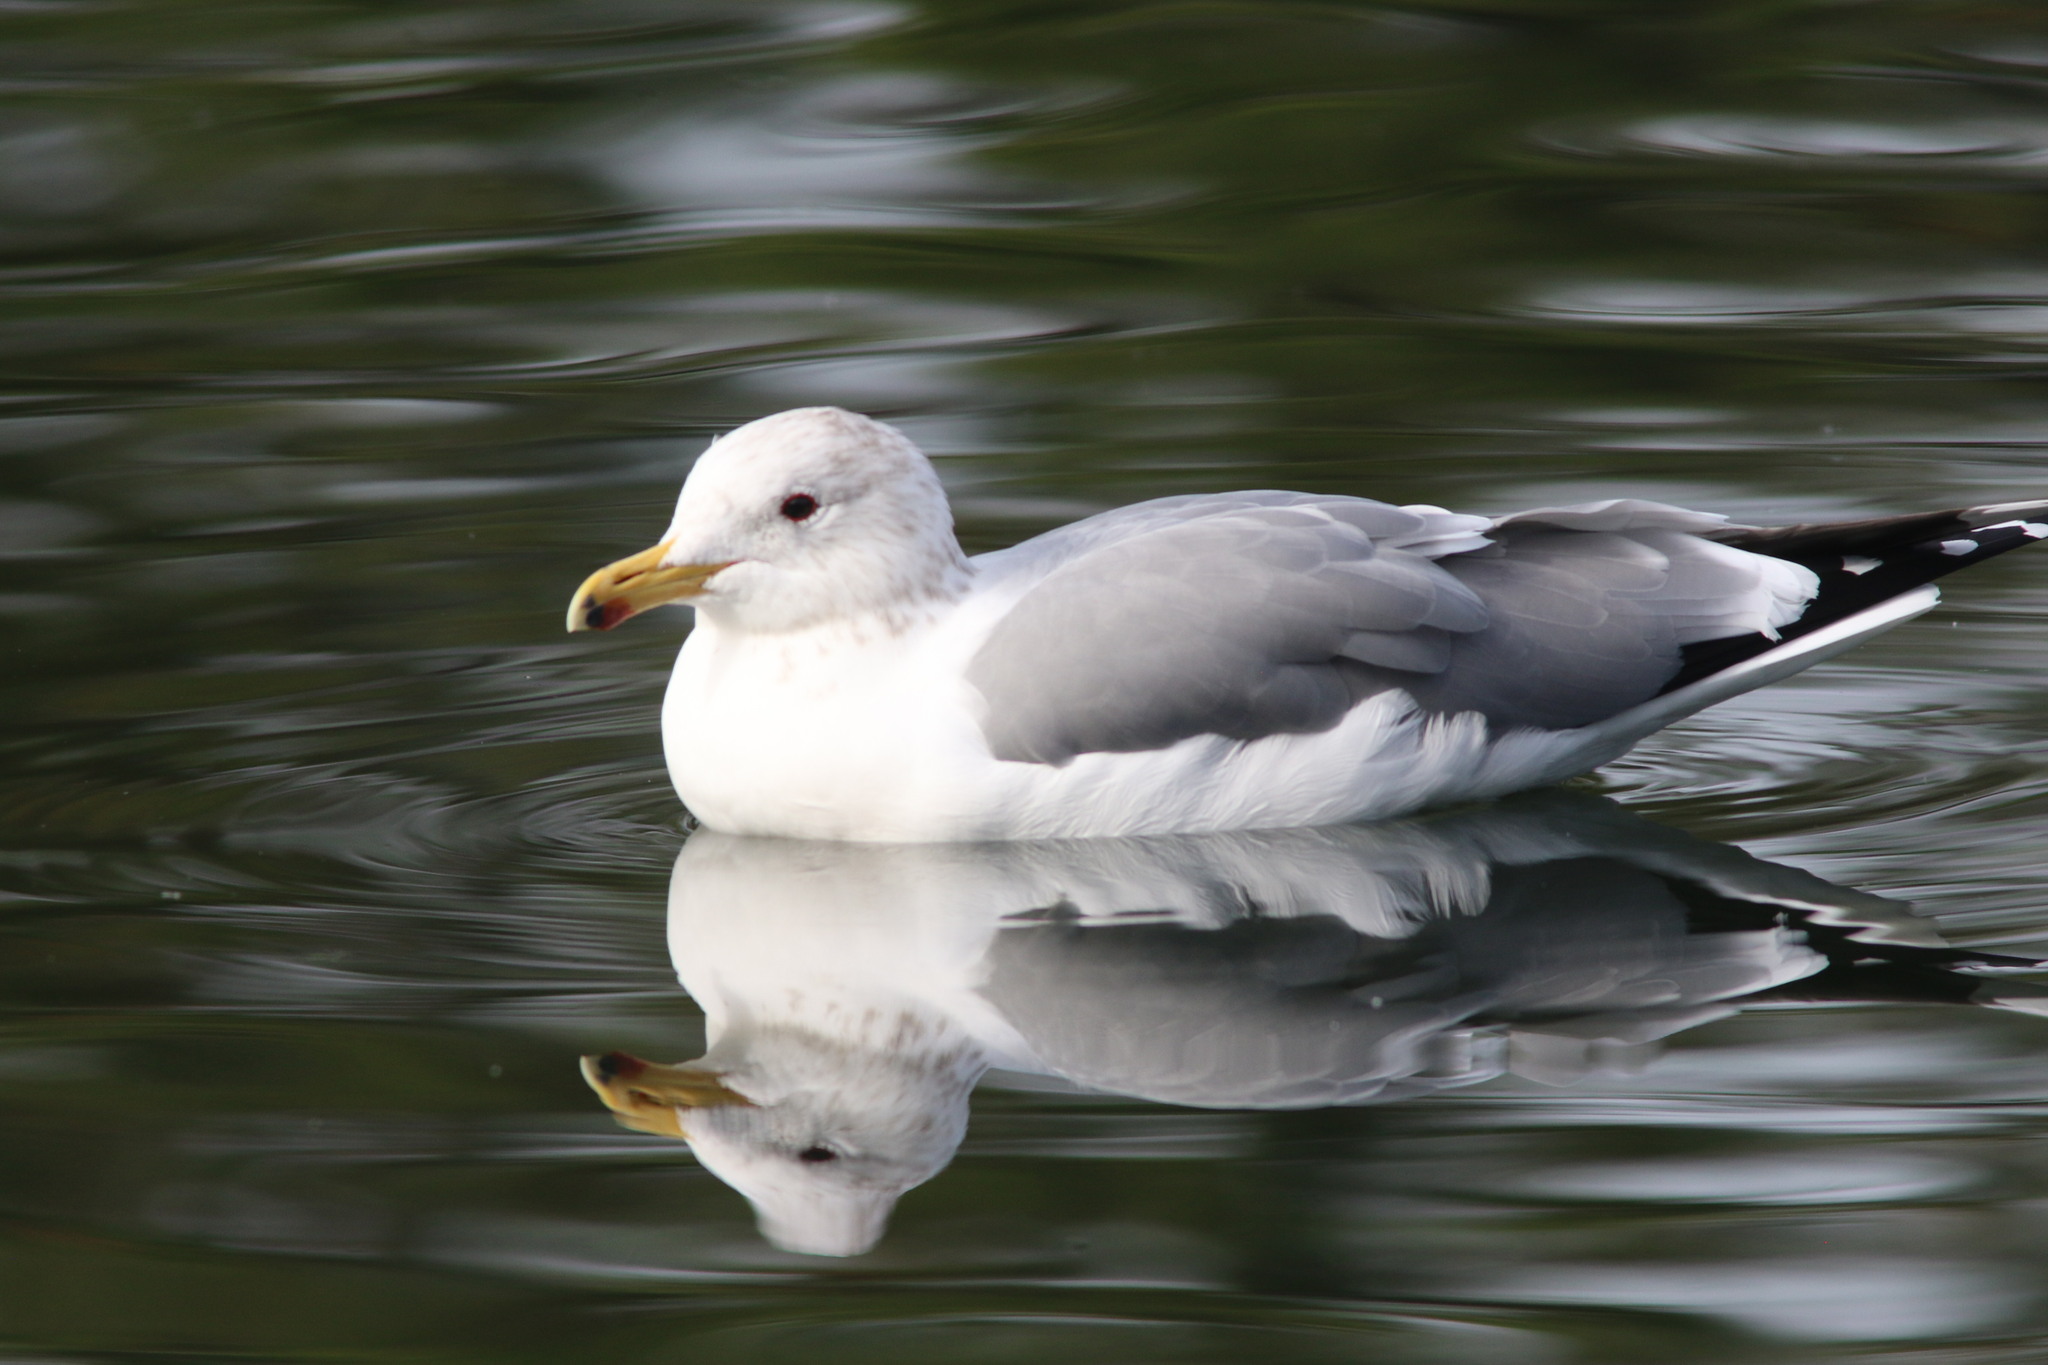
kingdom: Animalia
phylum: Chordata
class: Aves
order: Charadriiformes
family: Laridae
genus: Larus
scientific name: Larus californicus
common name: California gull
